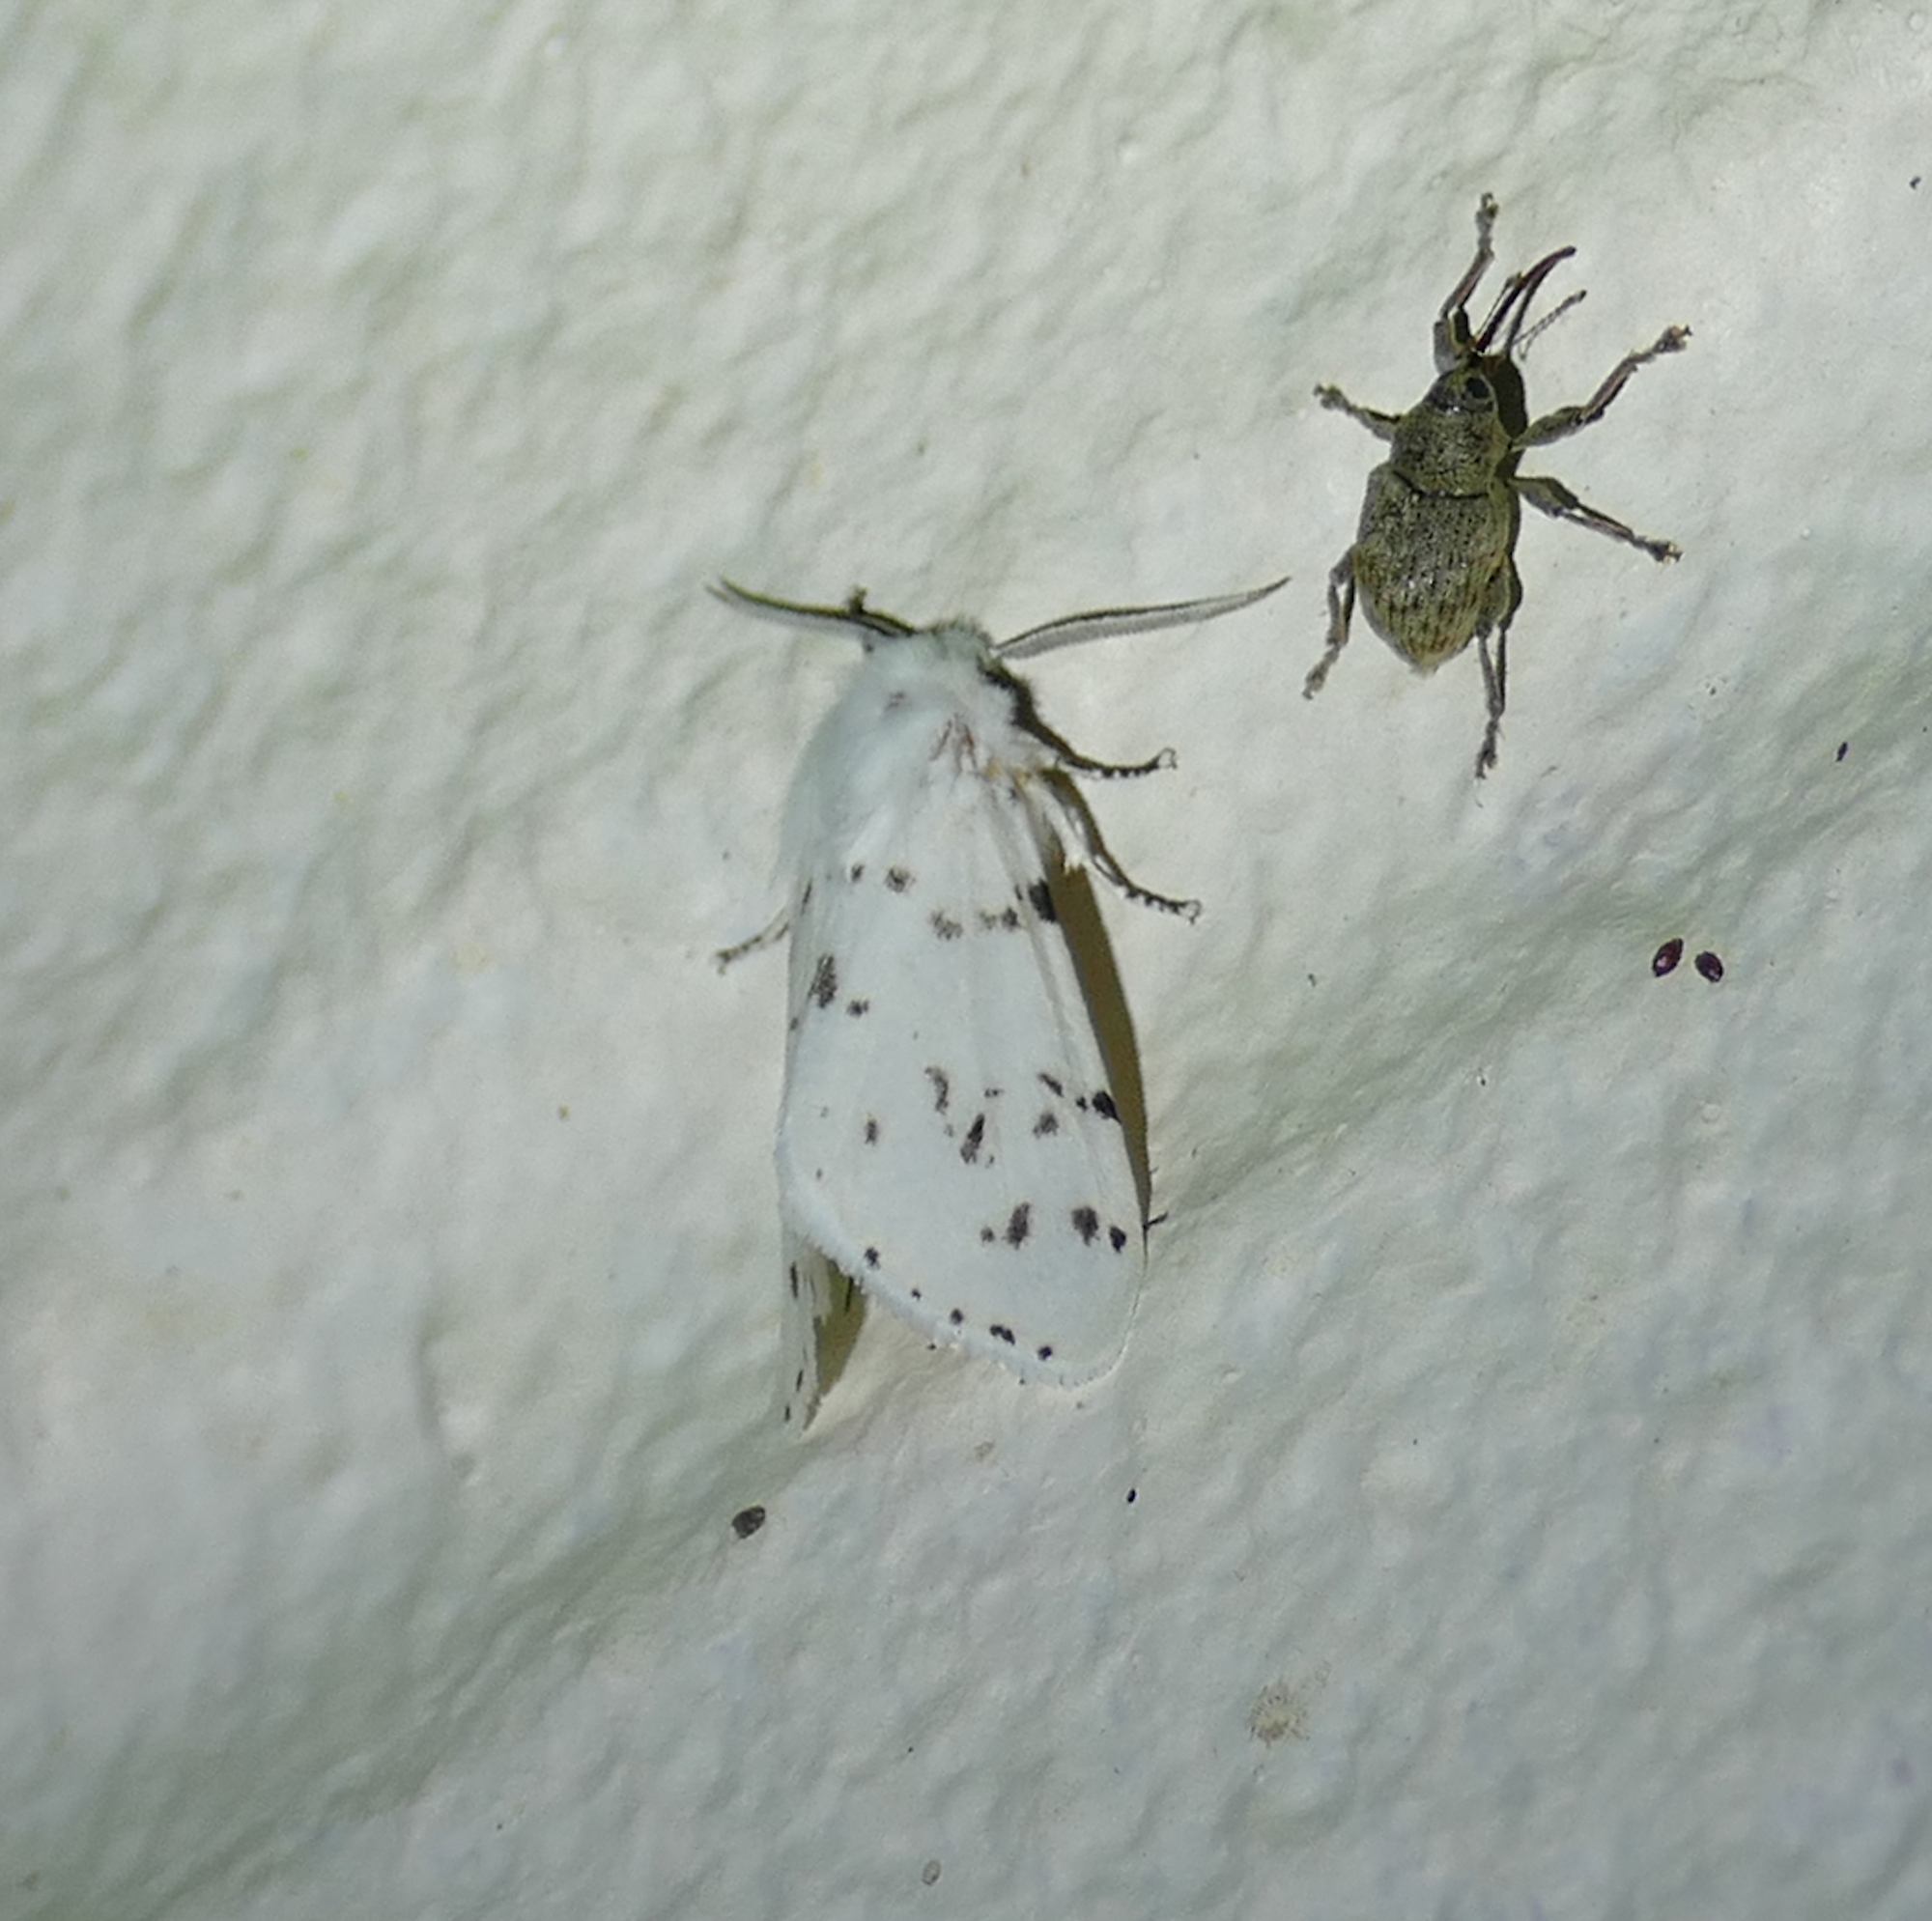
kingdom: Animalia
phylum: Arthropoda
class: Insecta
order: Lepidoptera
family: Erebidae
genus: Hyphantria
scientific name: Hyphantria cunea
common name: American white moth
